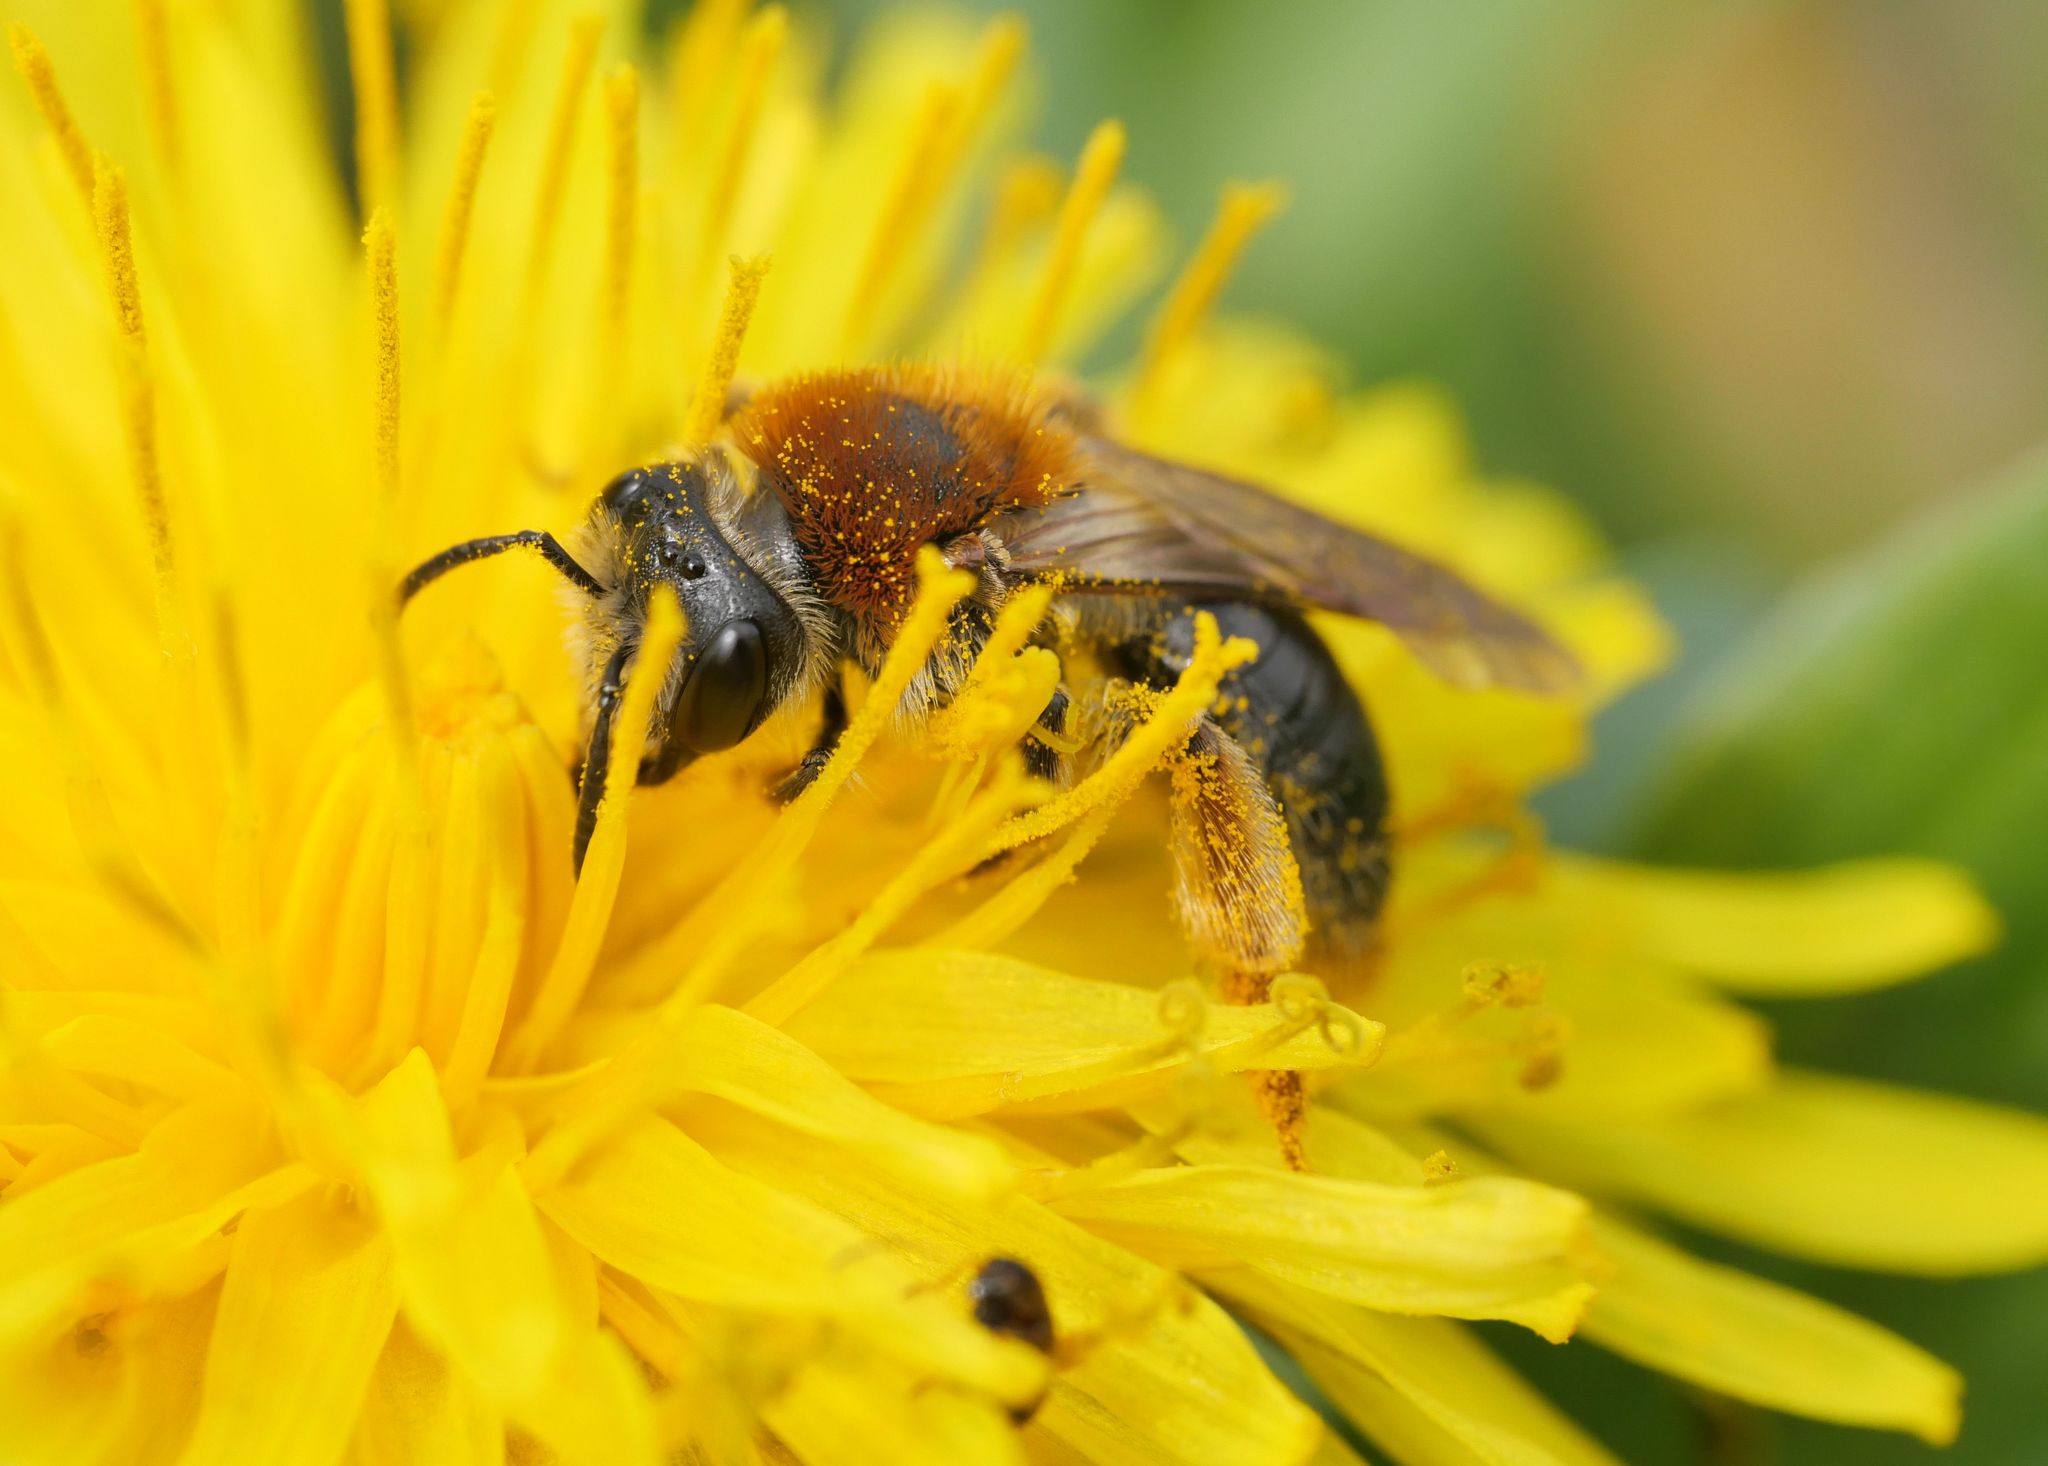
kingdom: Animalia
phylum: Arthropoda
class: Insecta
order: Hymenoptera
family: Andrenidae
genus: Andrena
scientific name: Andrena haemorrhoa
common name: Early mining bee
